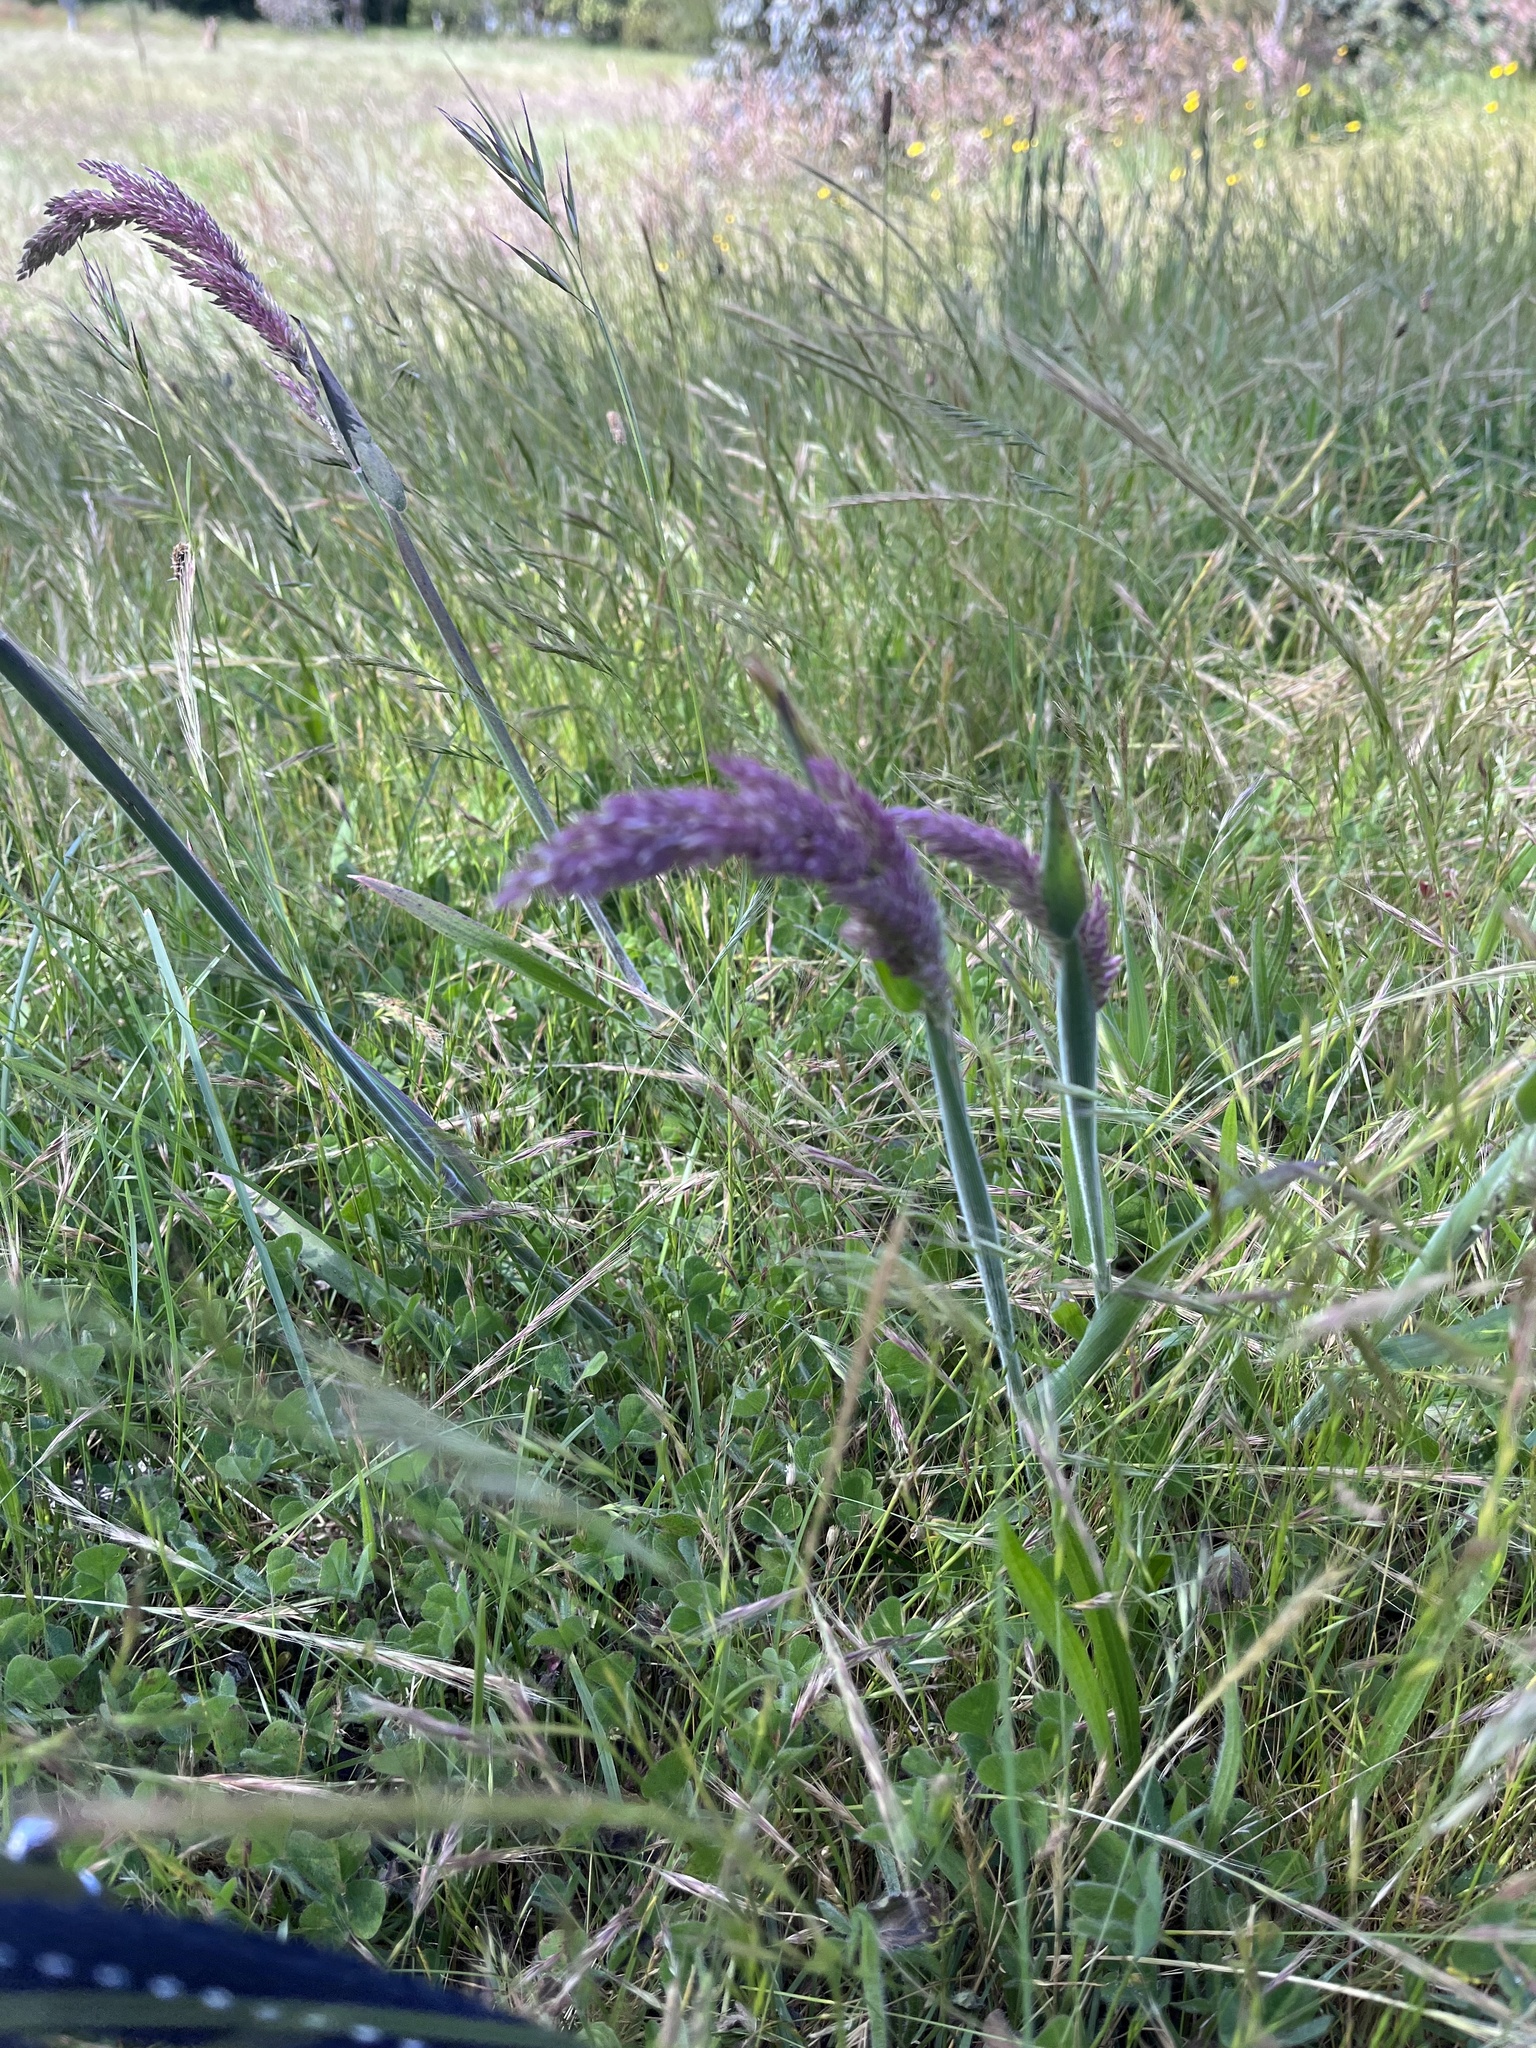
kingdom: Plantae
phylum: Tracheophyta
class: Liliopsida
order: Poales
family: Poaceae
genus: Holcus
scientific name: Holcus lanatus
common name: Yorkshire-fog
